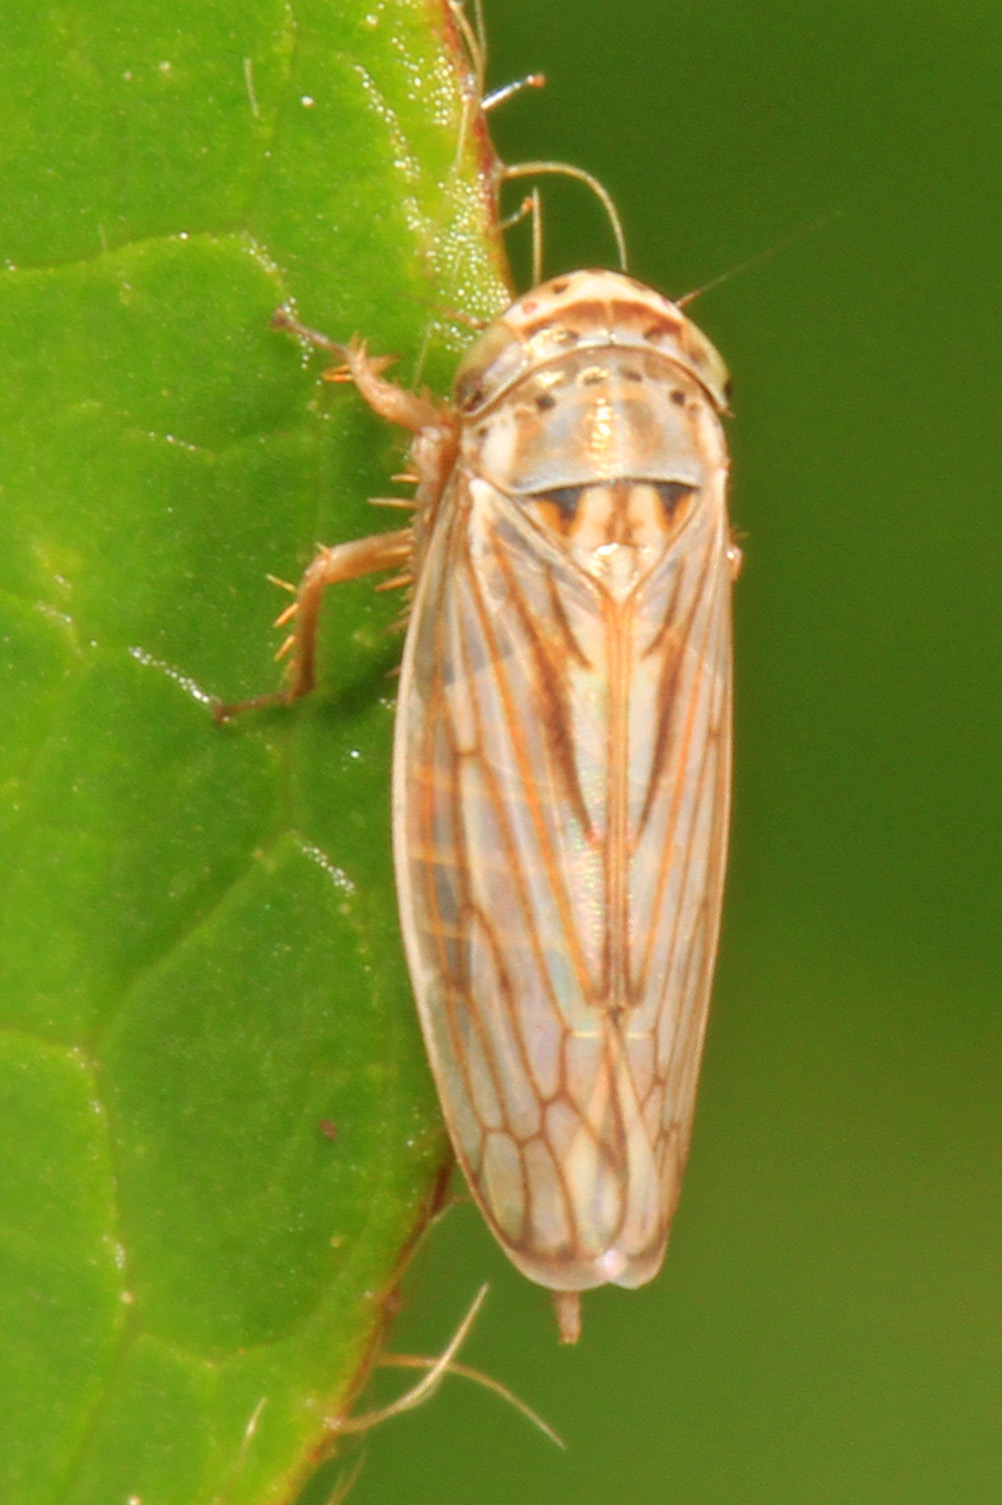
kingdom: Animalia
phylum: Arthropoda
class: Insecta
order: Hemiptera
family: Cicadellidae
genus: Exitianus
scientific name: Exitianus exitiosus
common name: Gray lawn leafhopper
